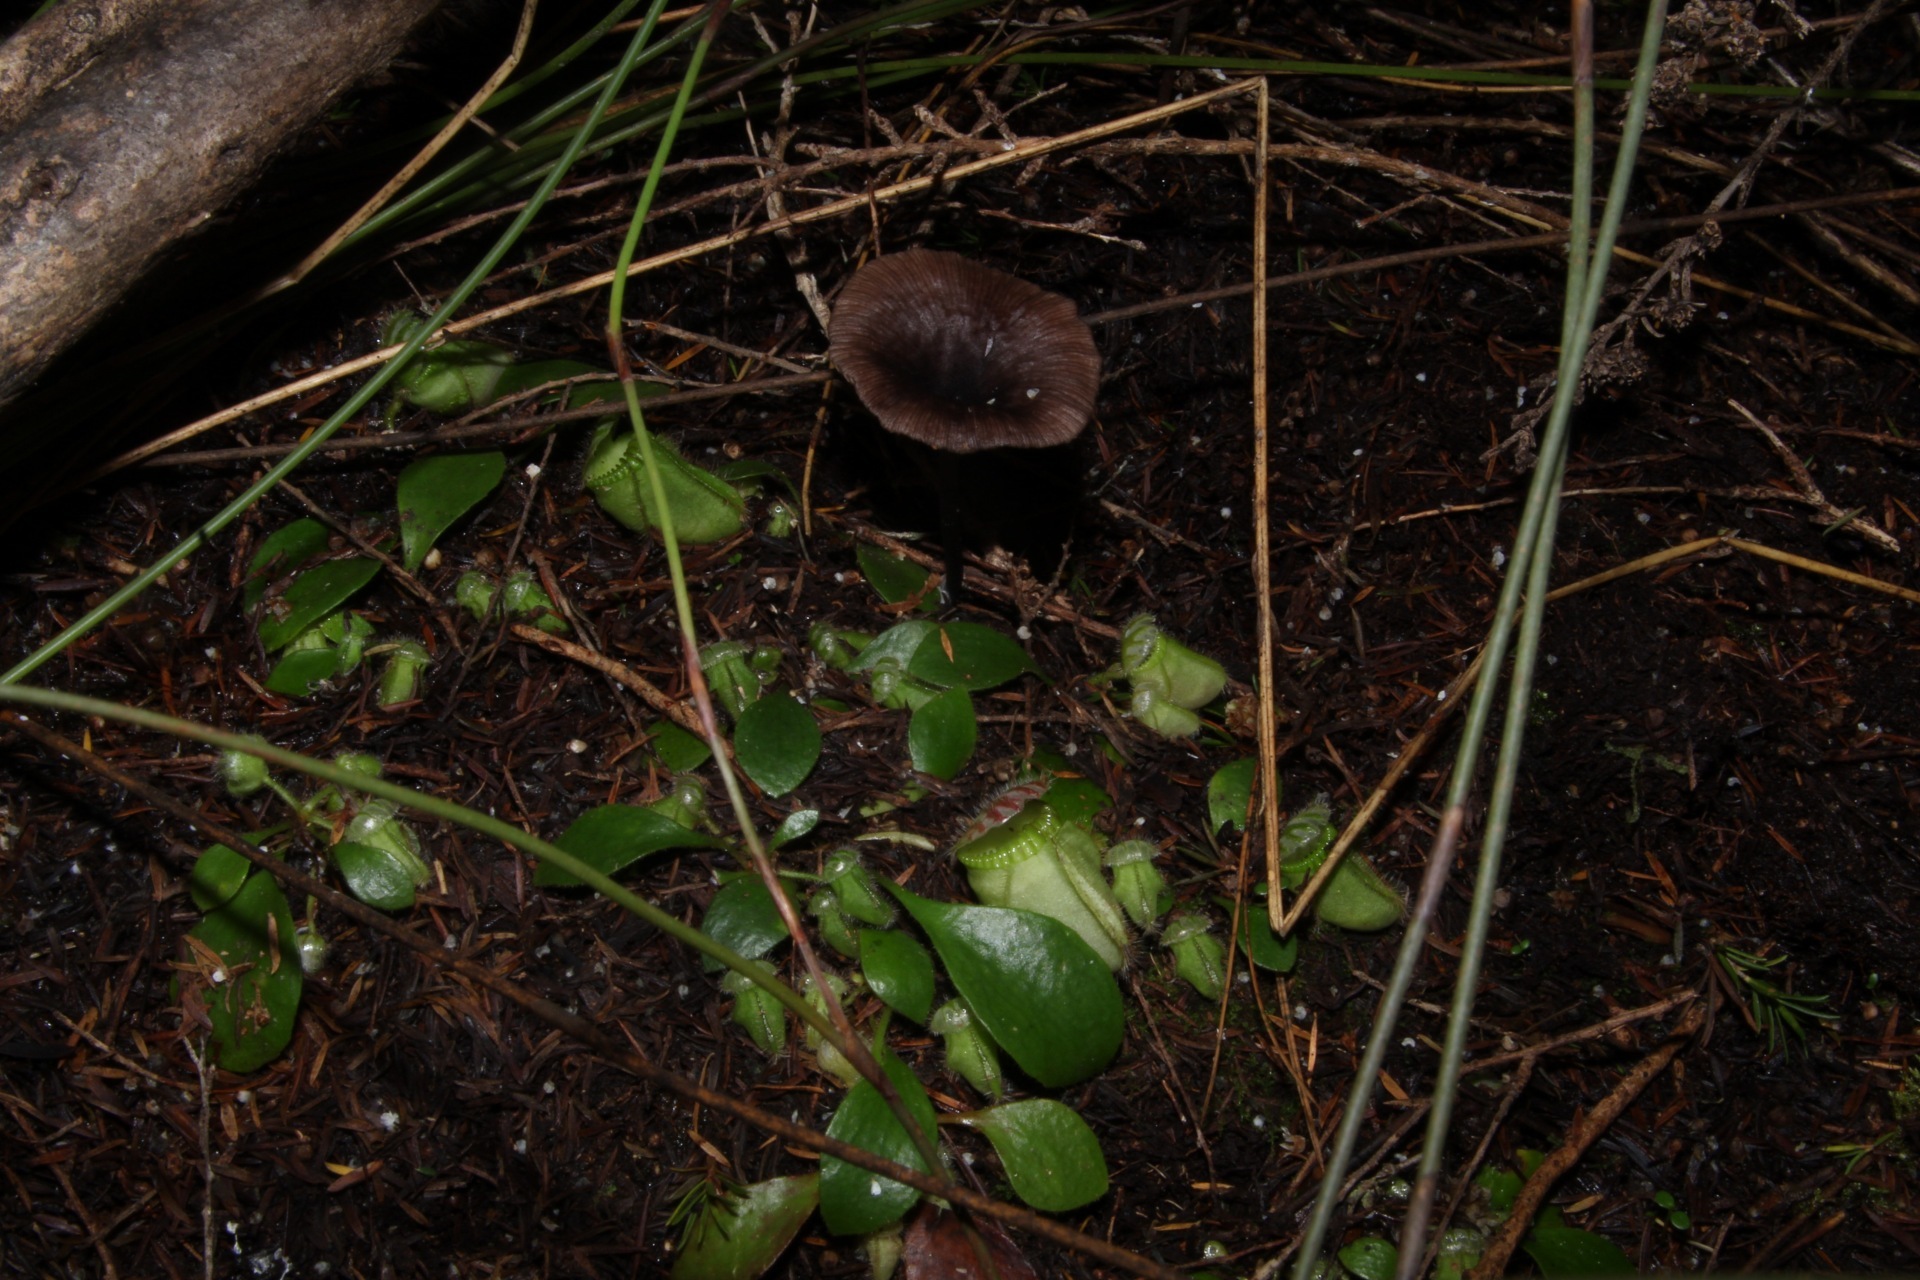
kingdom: Fungi
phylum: Basidiomycota
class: Agaricomycetes
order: Agaricales
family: Entolomataceae
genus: Entoloma
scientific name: Entoloma moongum
